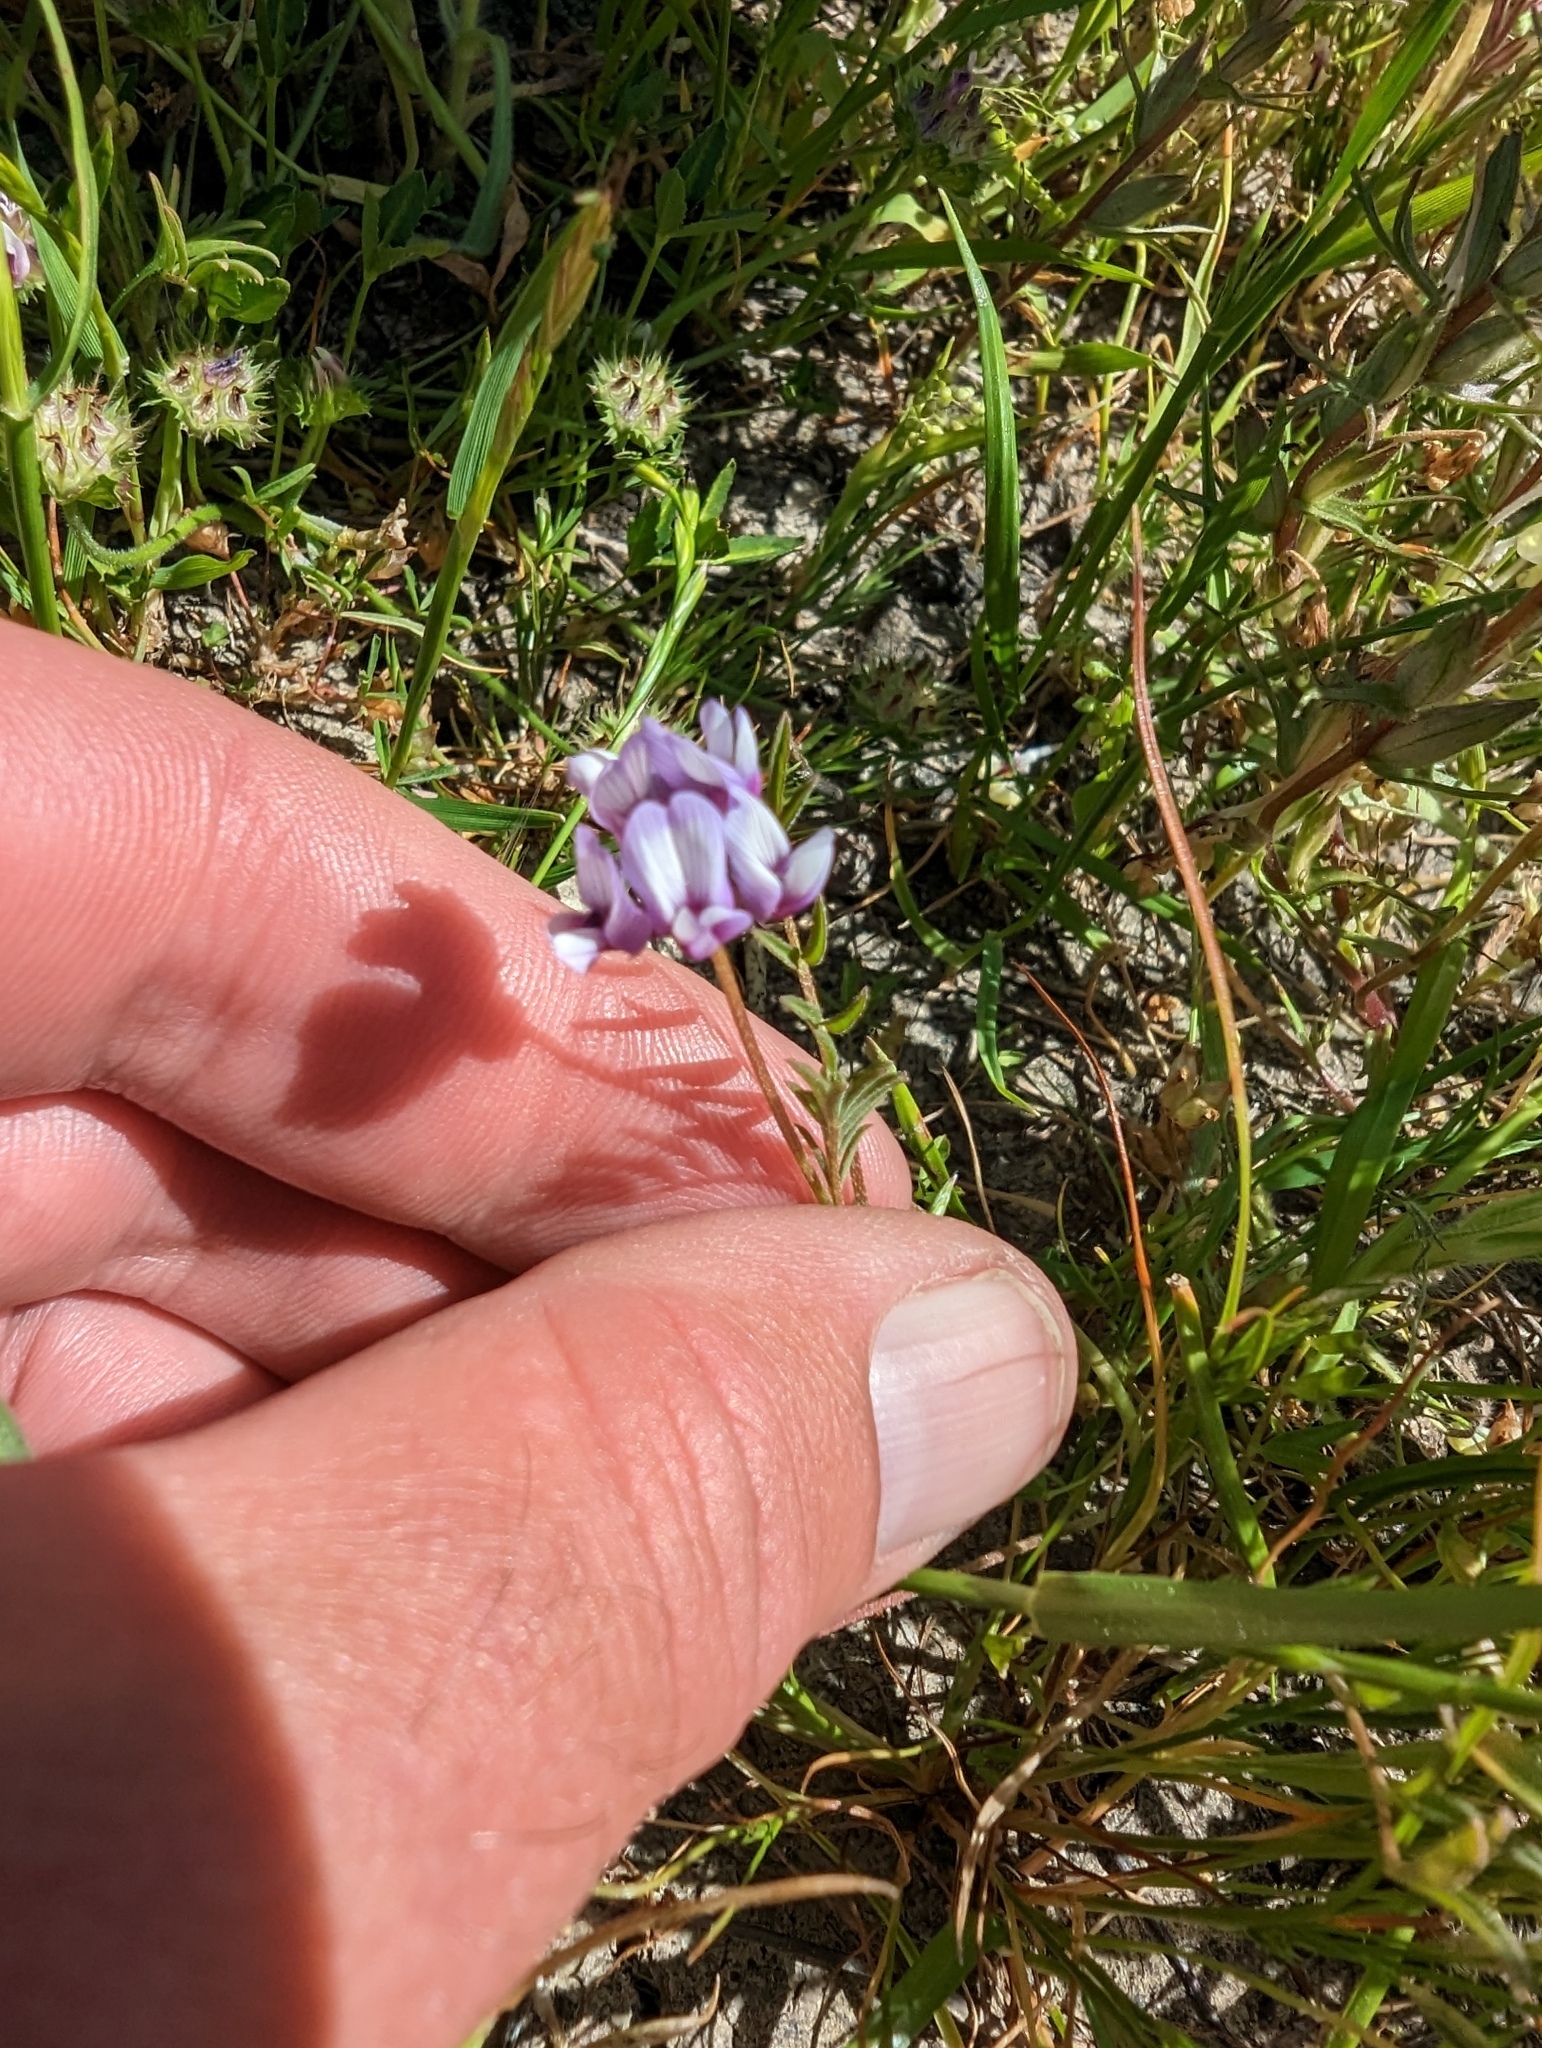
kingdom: Plantae
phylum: Tracheophyta
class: Magnoliopsida
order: Fabales
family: Fabaceae
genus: Astragalus
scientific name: Astragalus tener
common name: Gray slender milkvetch
